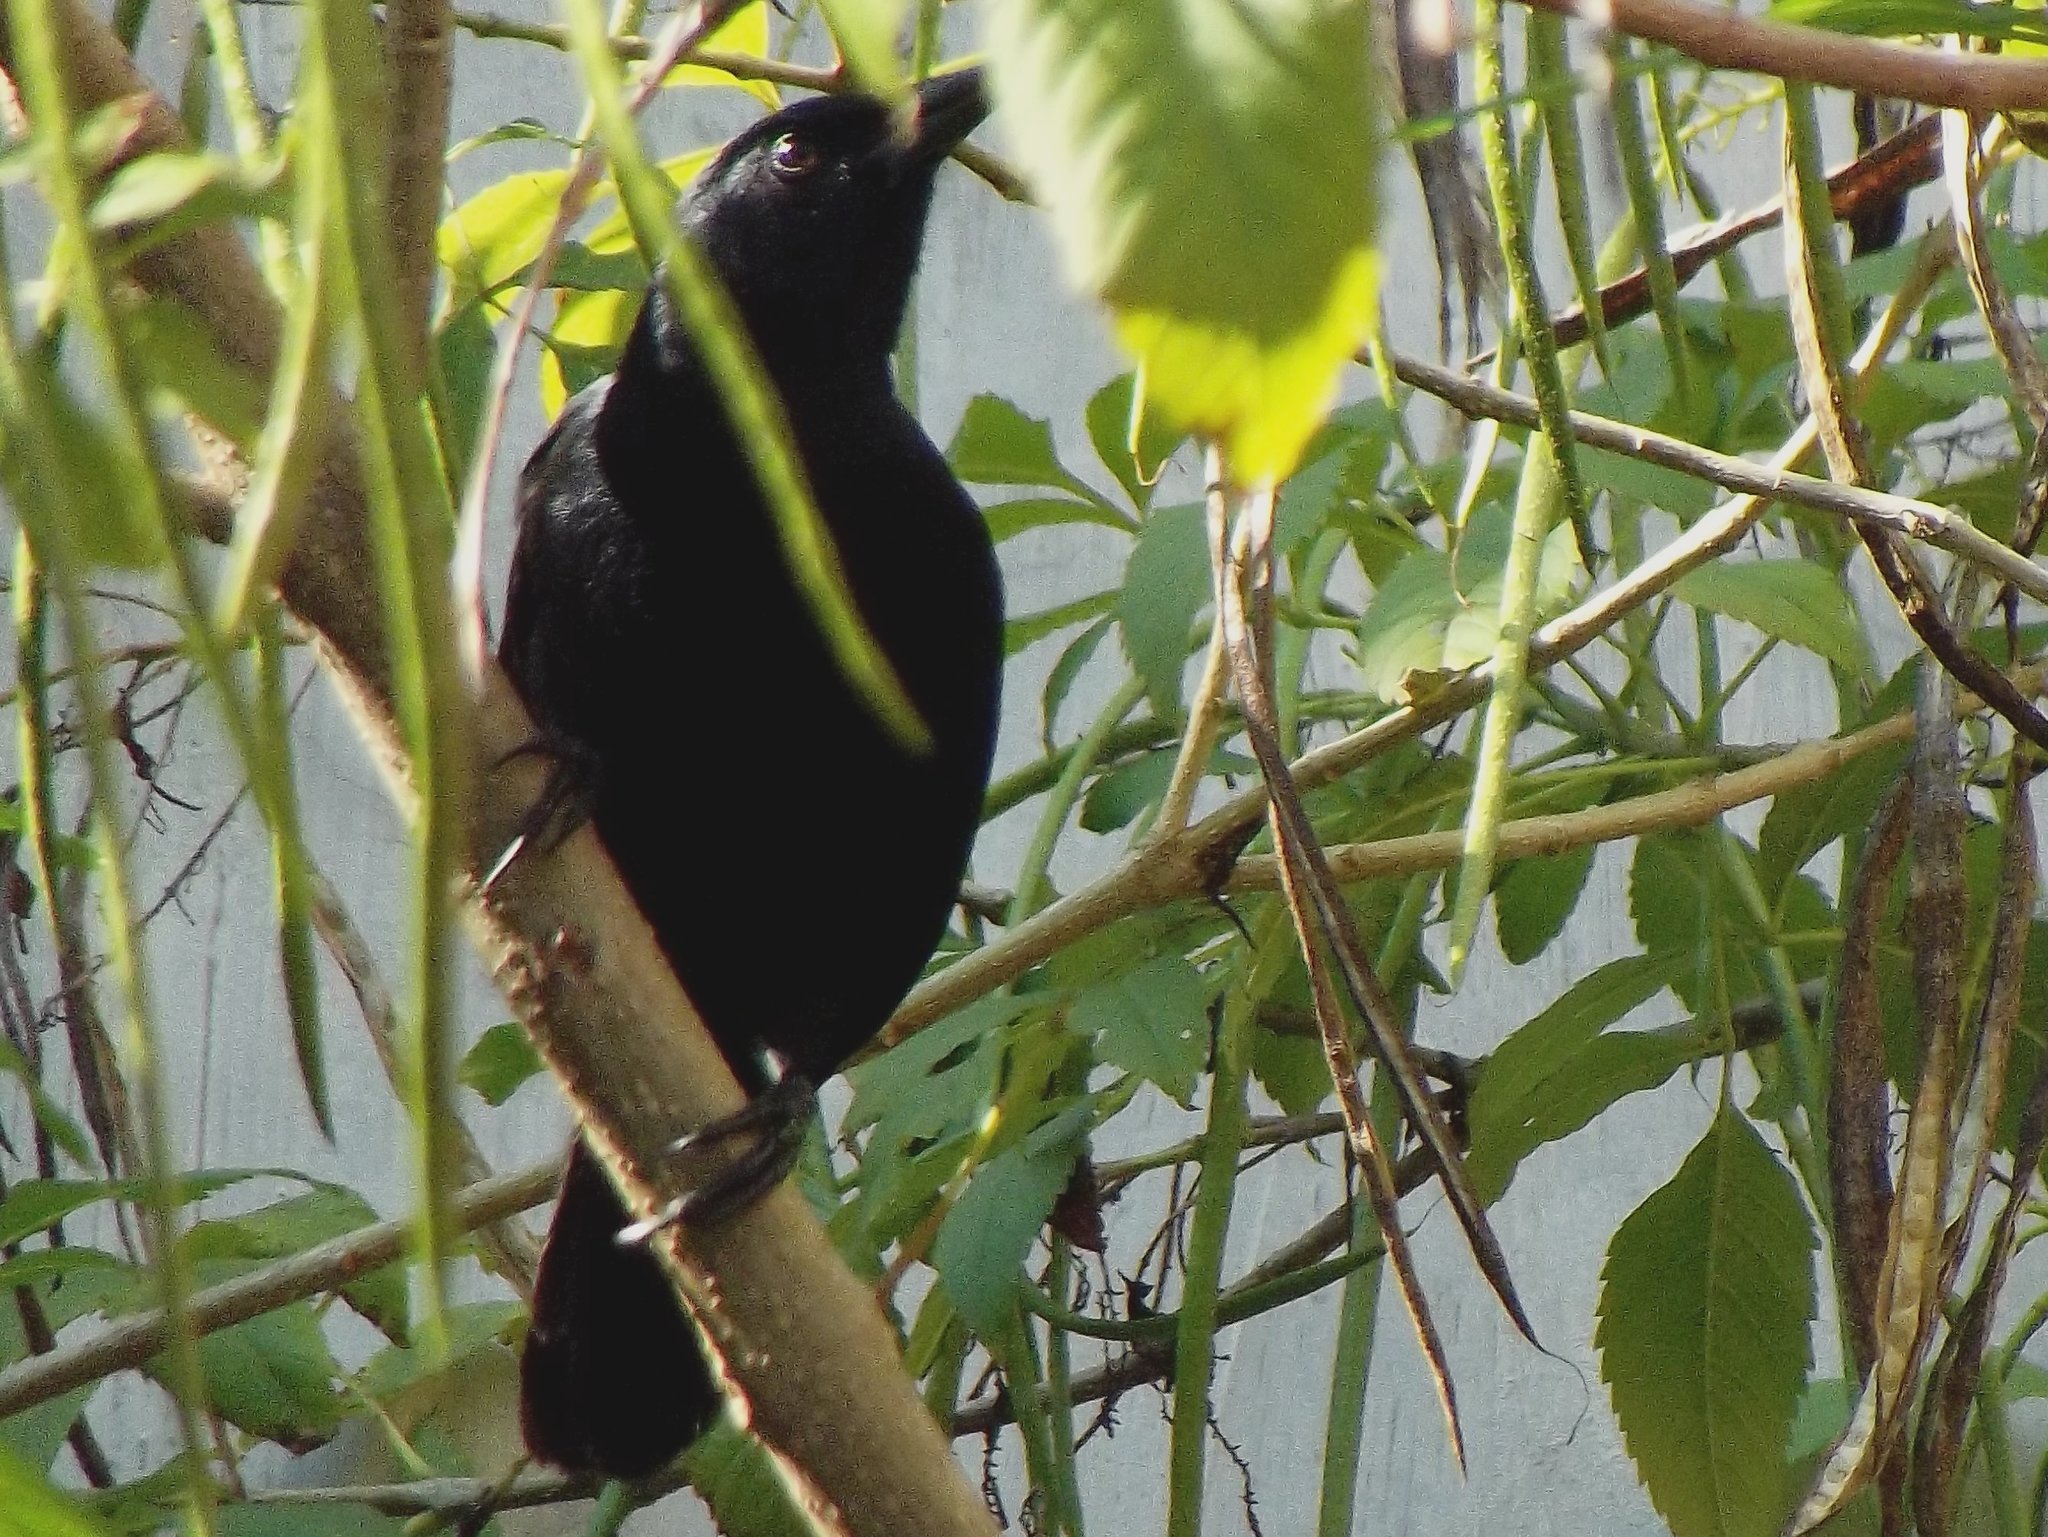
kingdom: Animalia
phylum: Chordata
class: Aves
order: Passeriformes
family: Icteridae
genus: Dives
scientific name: Dives dives
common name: Melodious blackbird
